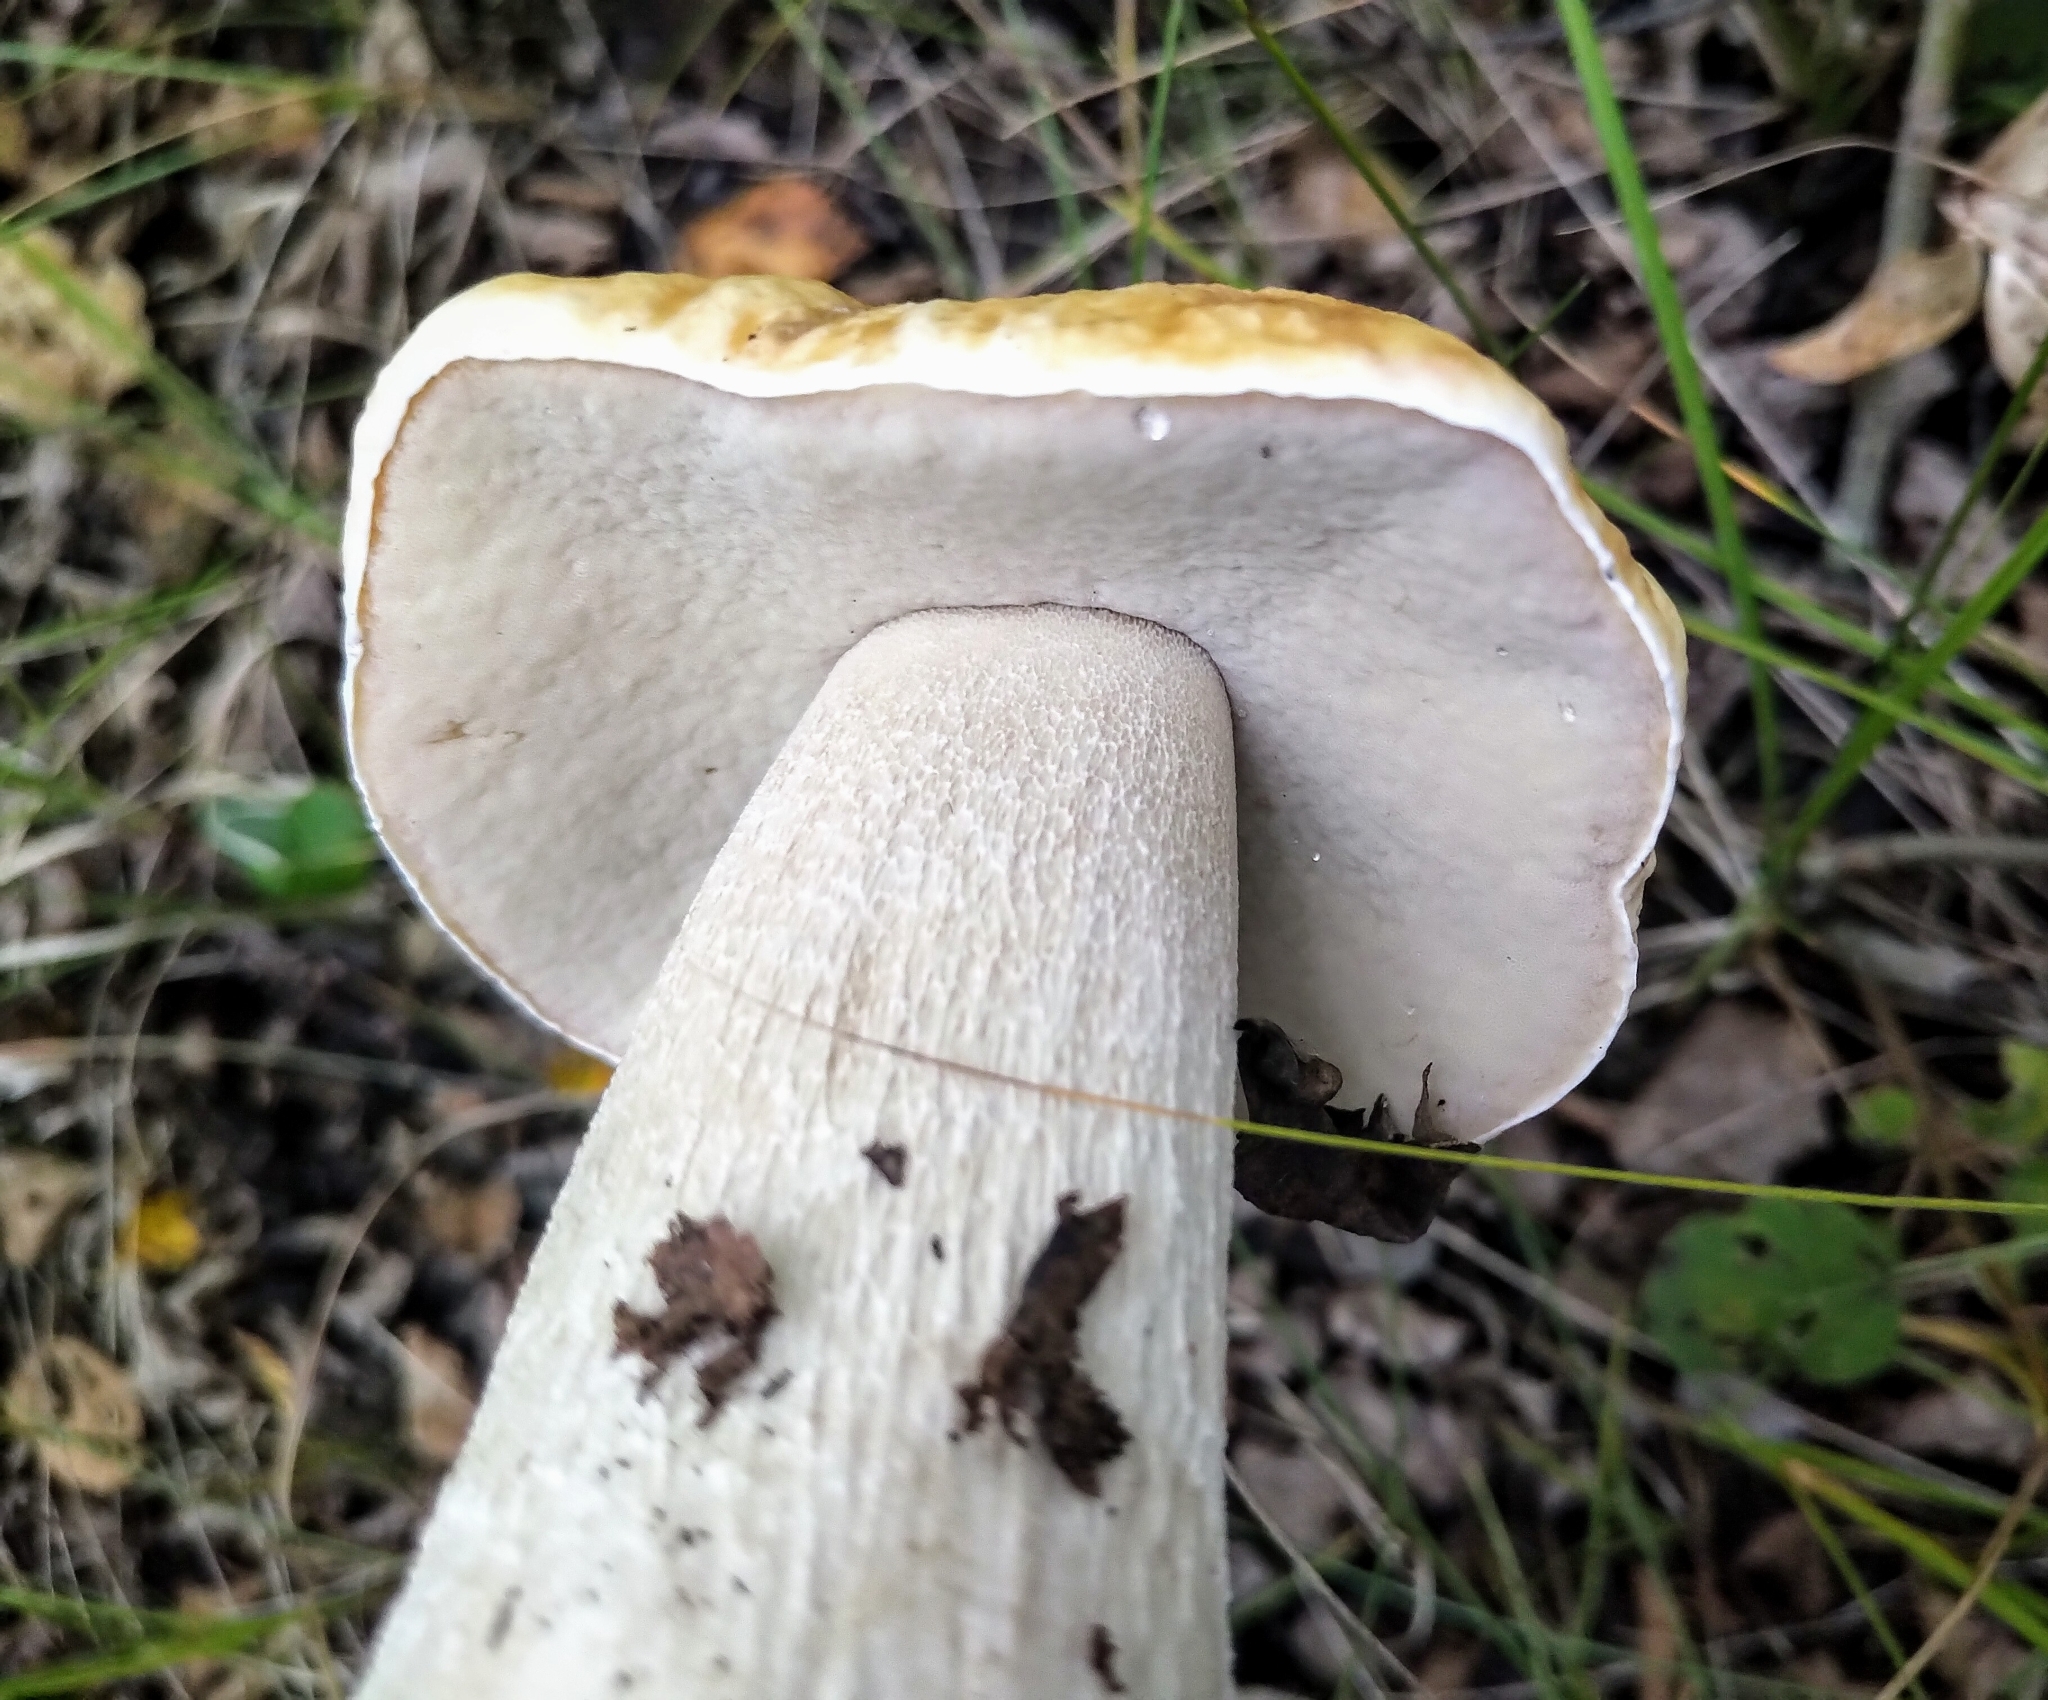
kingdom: Fungi
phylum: Basidiomycota
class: Agaricomycetes
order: Boletales
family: Boletaceae
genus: Boletus
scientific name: Boletus edulis
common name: Cep
